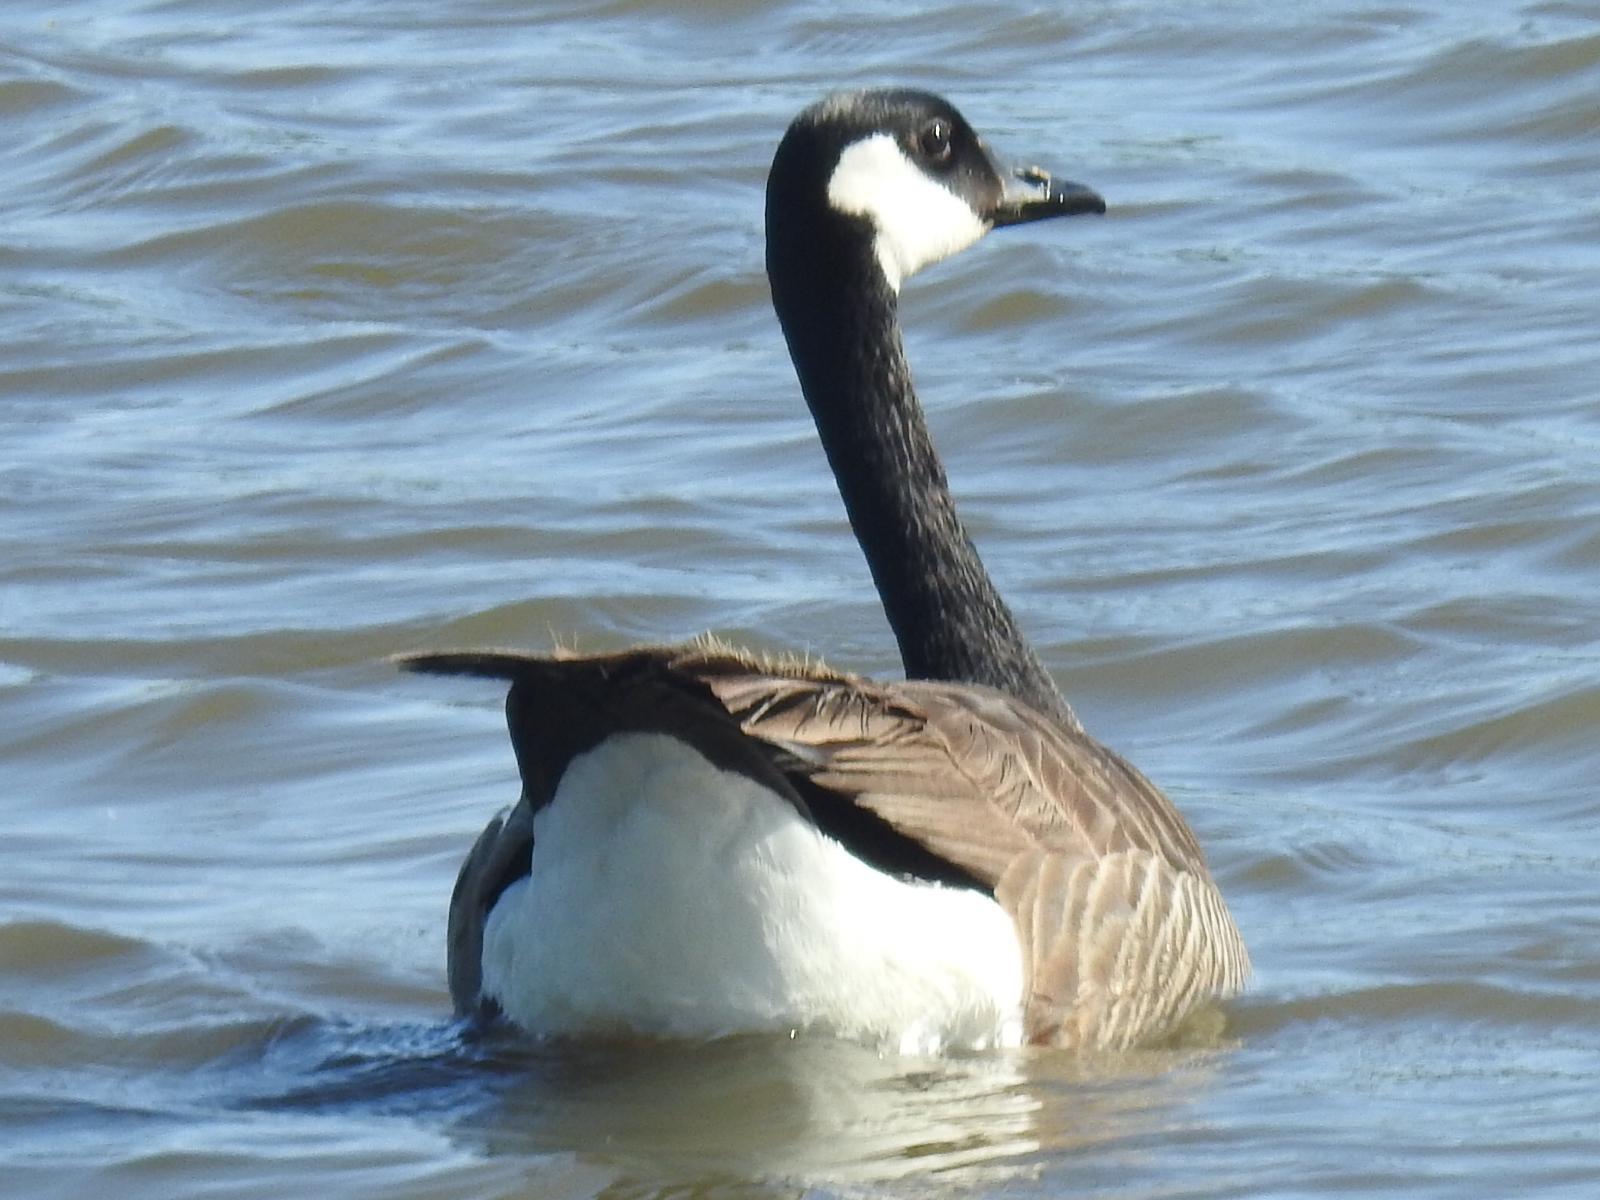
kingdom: Animalia
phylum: Chordata
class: Aves
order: Anseriformes
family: Anatidae
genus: Branta
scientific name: Branta canadensis
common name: Canada goose
